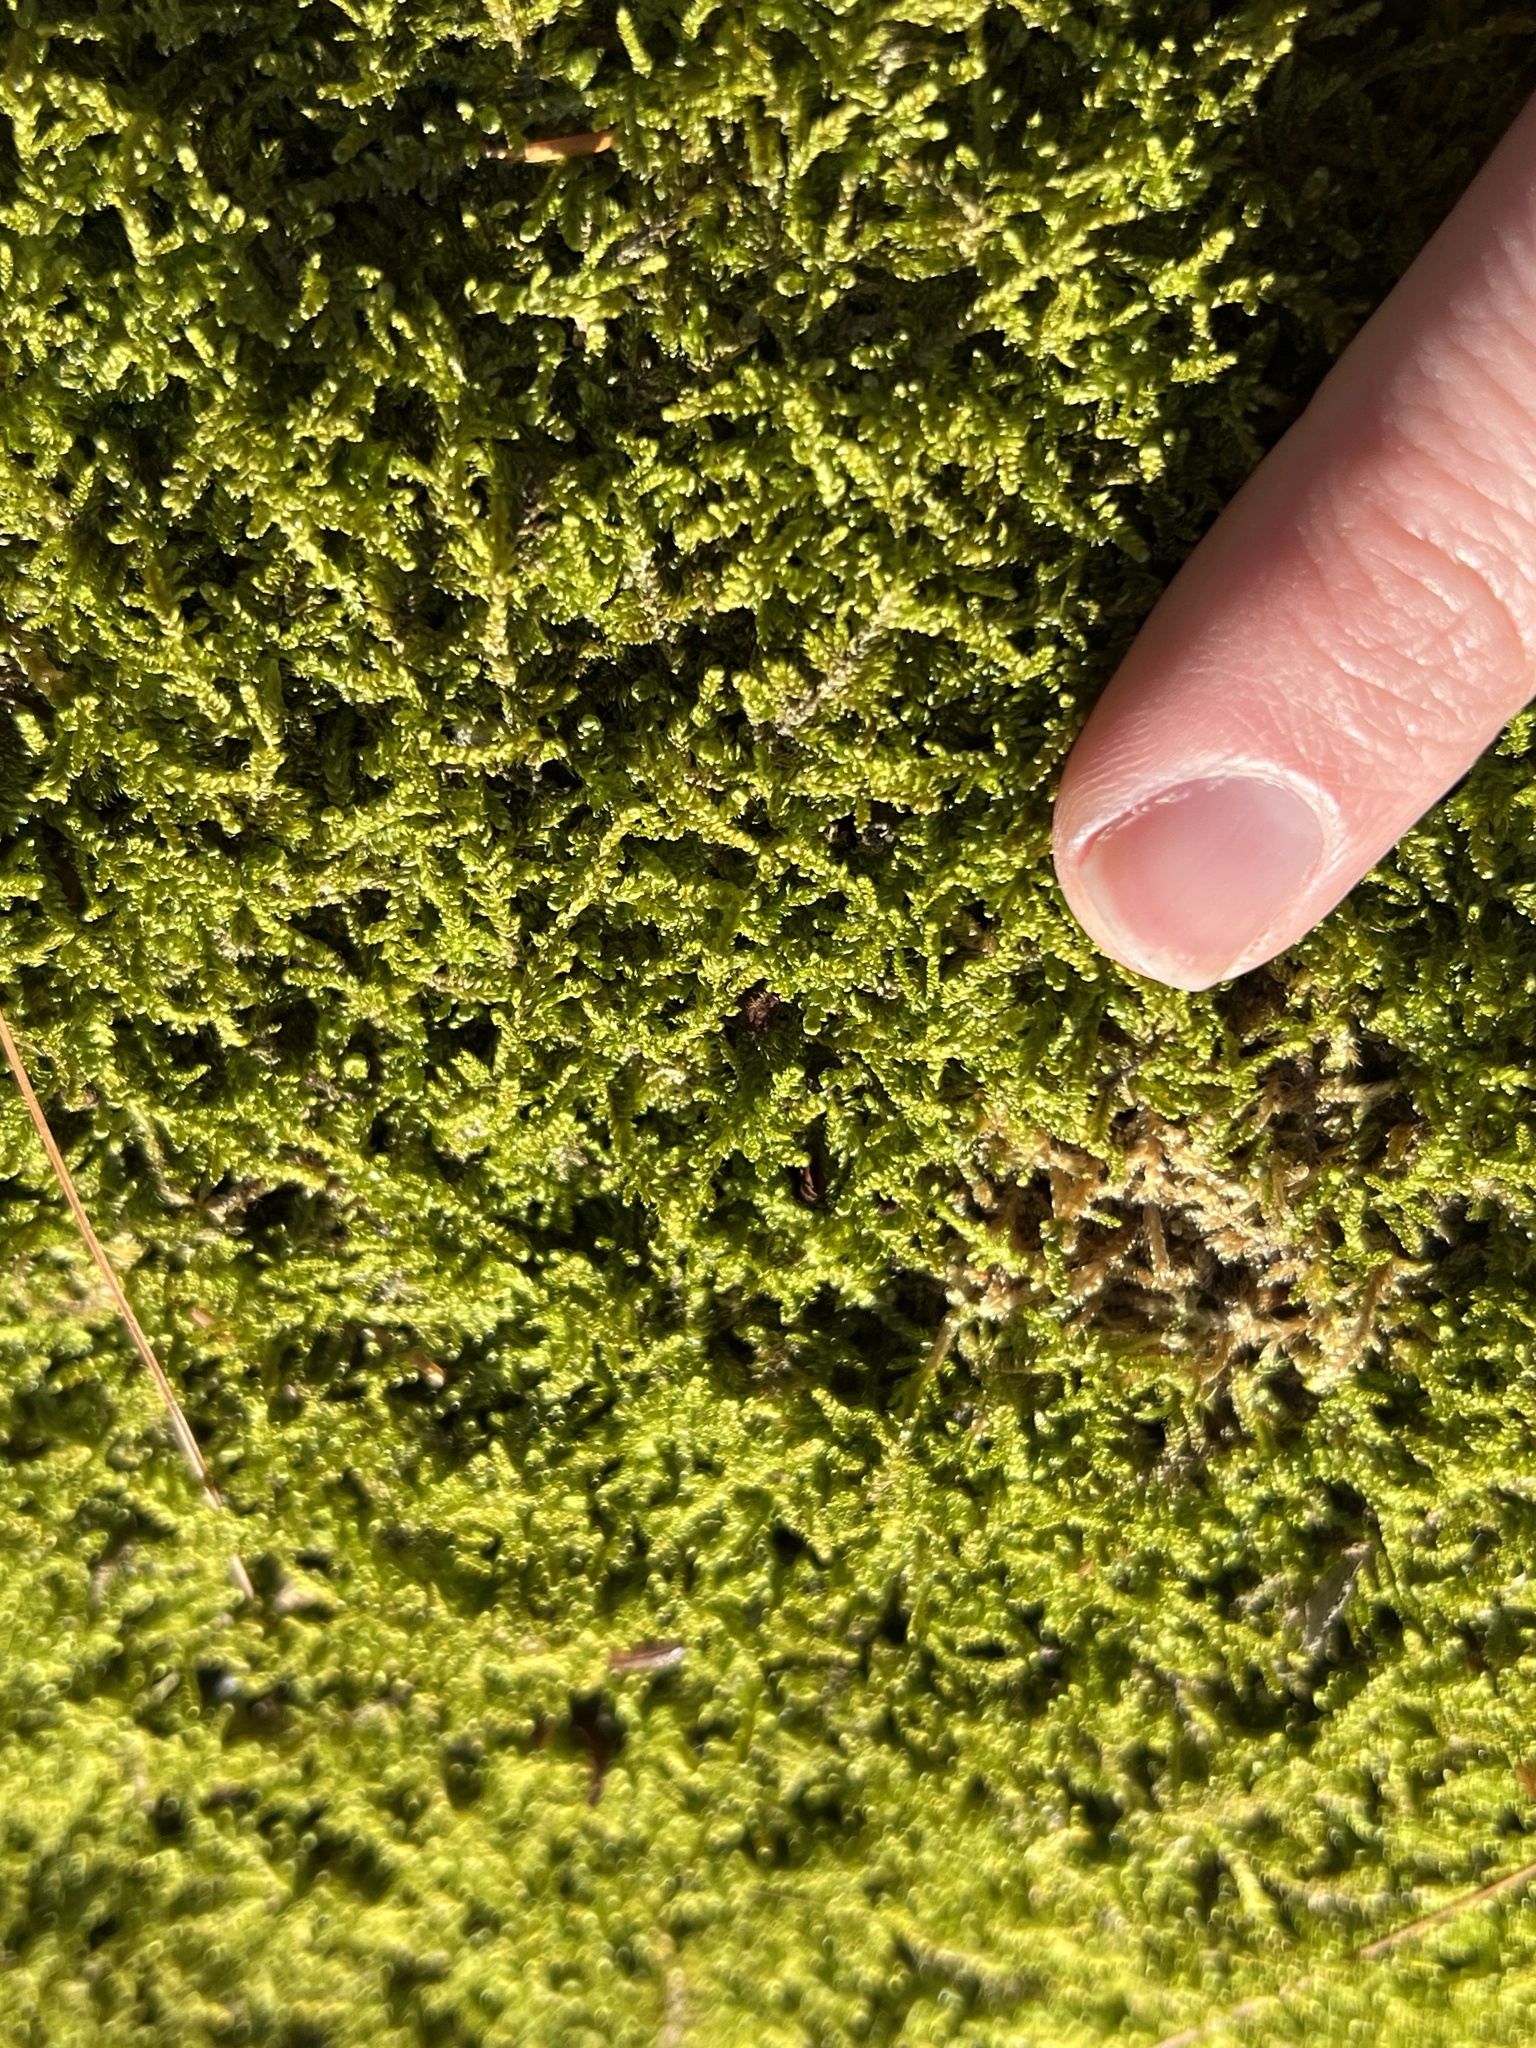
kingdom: Plantae
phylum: Bryophyta
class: Bryopsida
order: Hypnales
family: Callicladiaceae
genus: Callicladium
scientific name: Callicladium imponens
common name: Brocade moss
